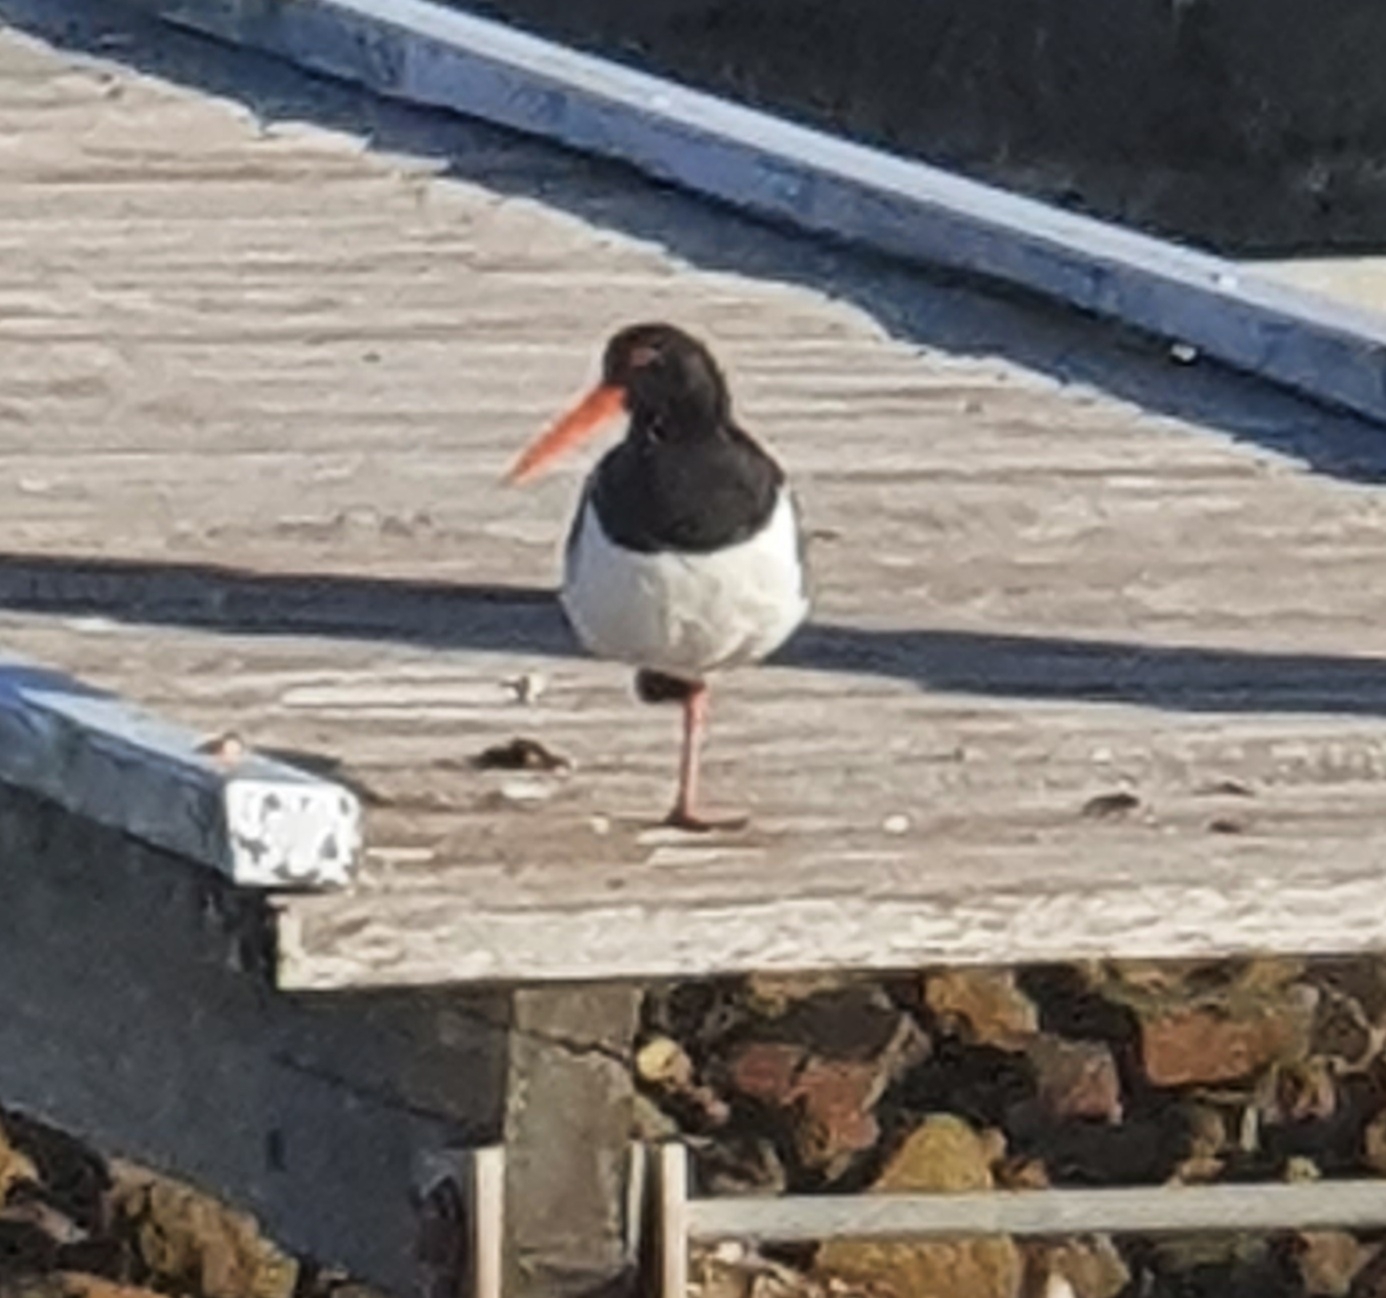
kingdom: Animalia
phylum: Chordata
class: Aves
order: Charadriiformes
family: Haematopodidae
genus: Haematopus
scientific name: Haematopus longirostris
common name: Pied oystercatcher
